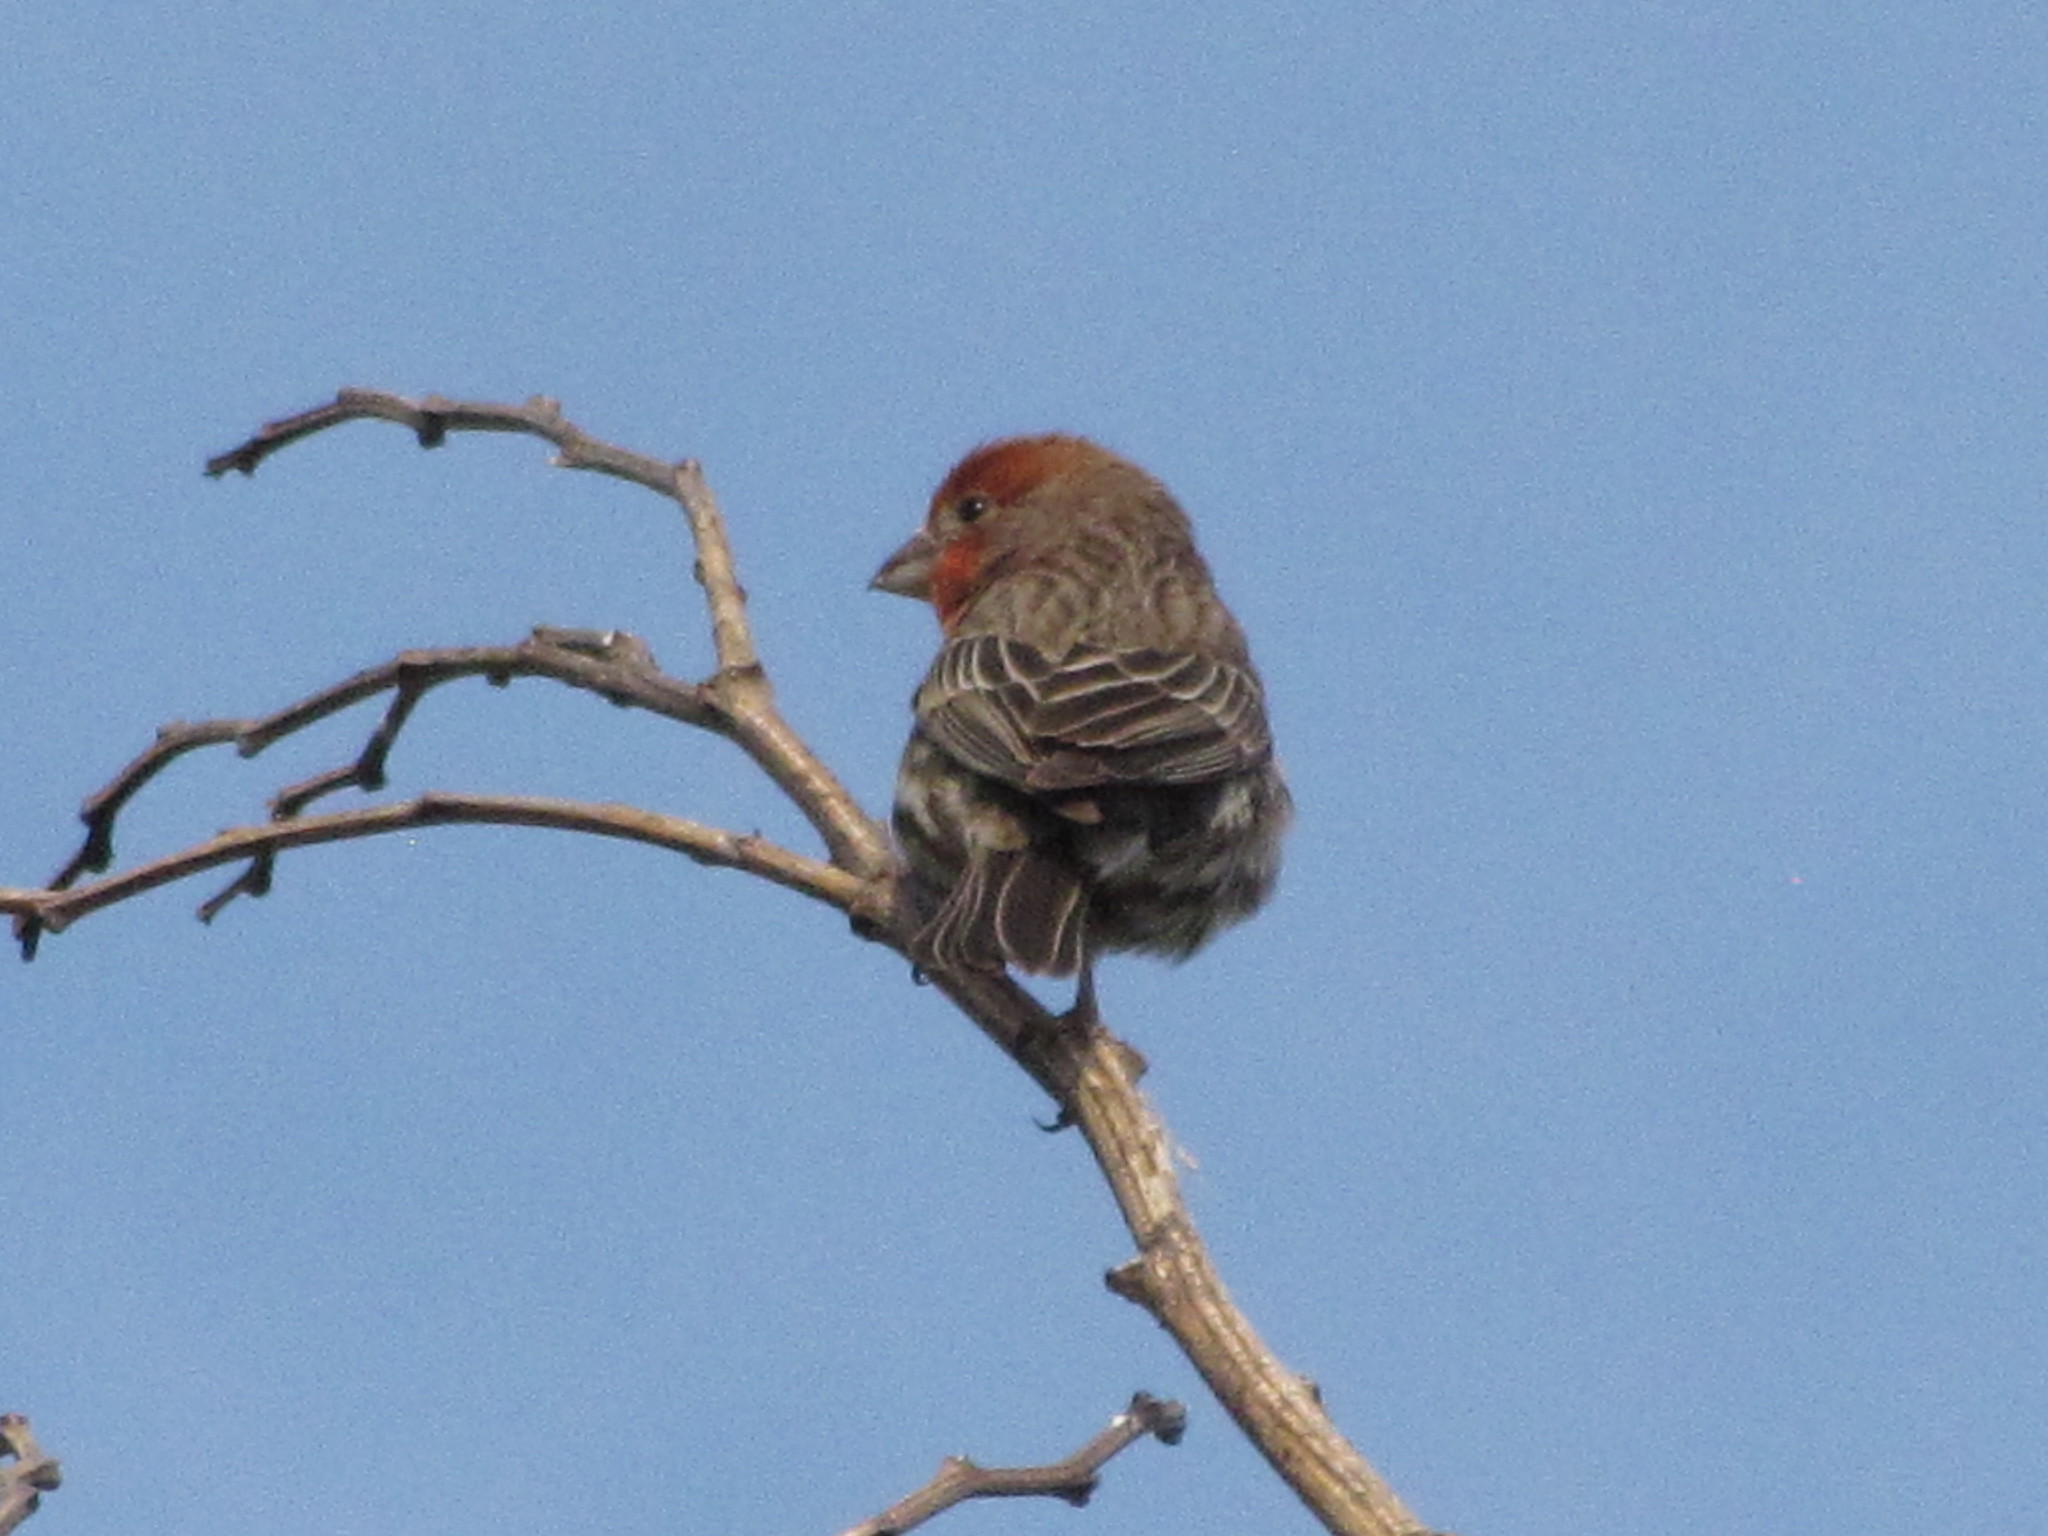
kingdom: Animalia
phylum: Chordata
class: Aves
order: Passeriformes
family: Fringillidae
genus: Haemorhous
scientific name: Haemorhous mexicanus
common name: House finch
